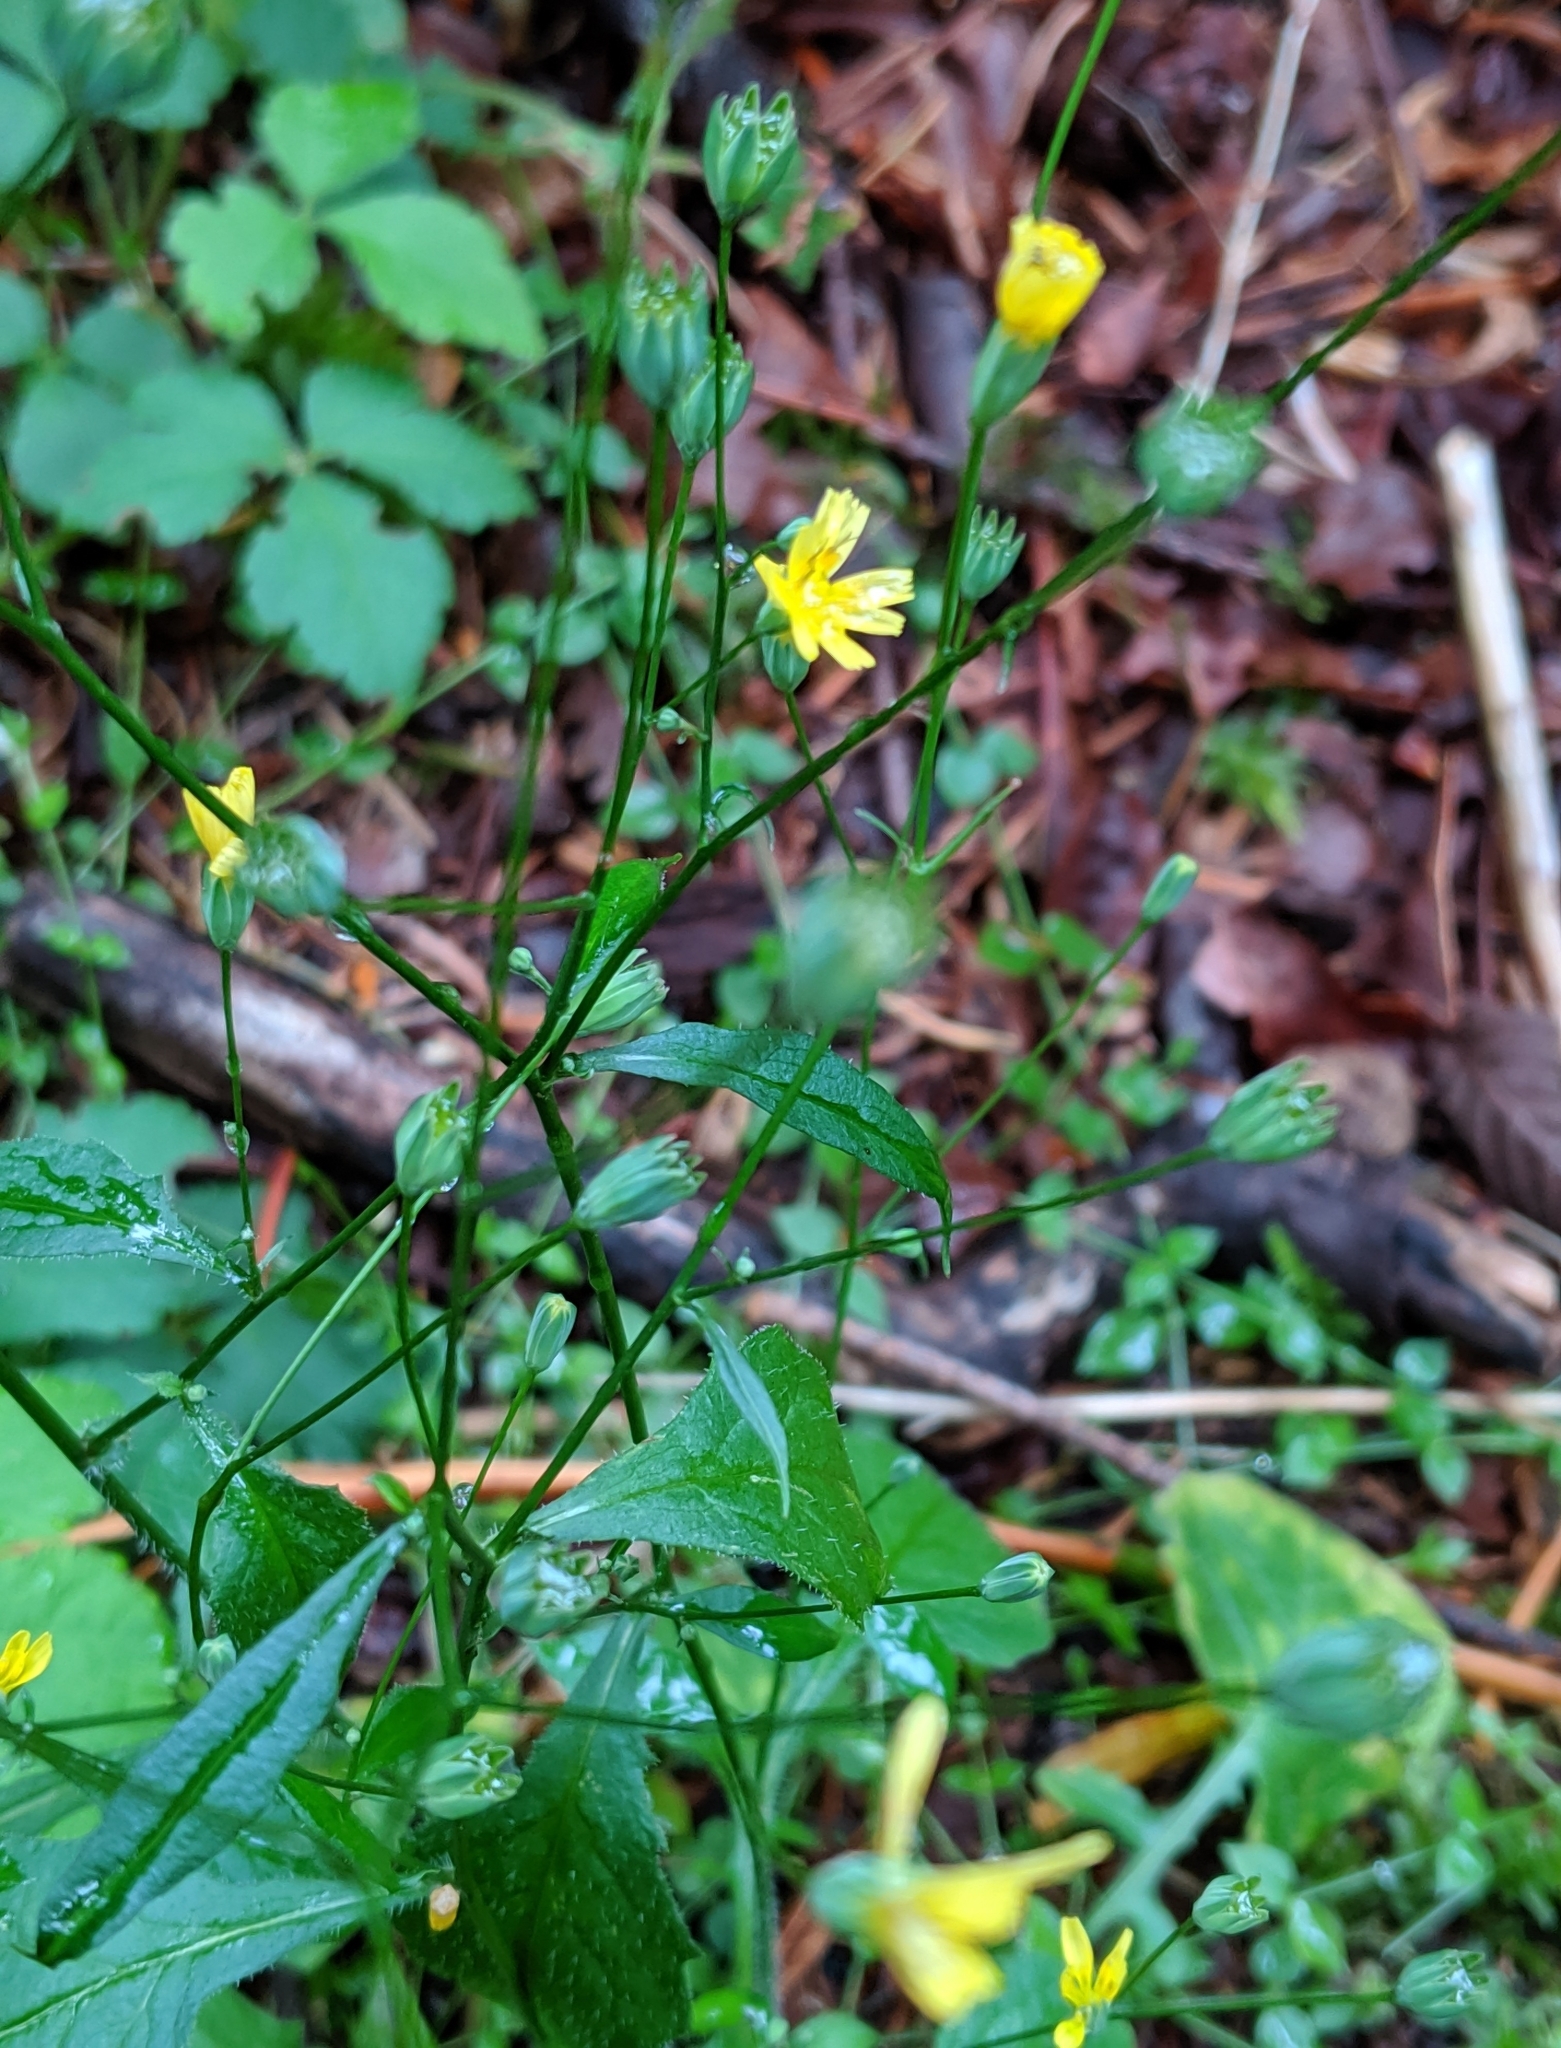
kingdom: Plantae
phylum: Tracheophyta
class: Magnoliopsida
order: Asterales
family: Asteraceae
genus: Lapsana
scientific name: Lapsana communis
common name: Nipplewort
